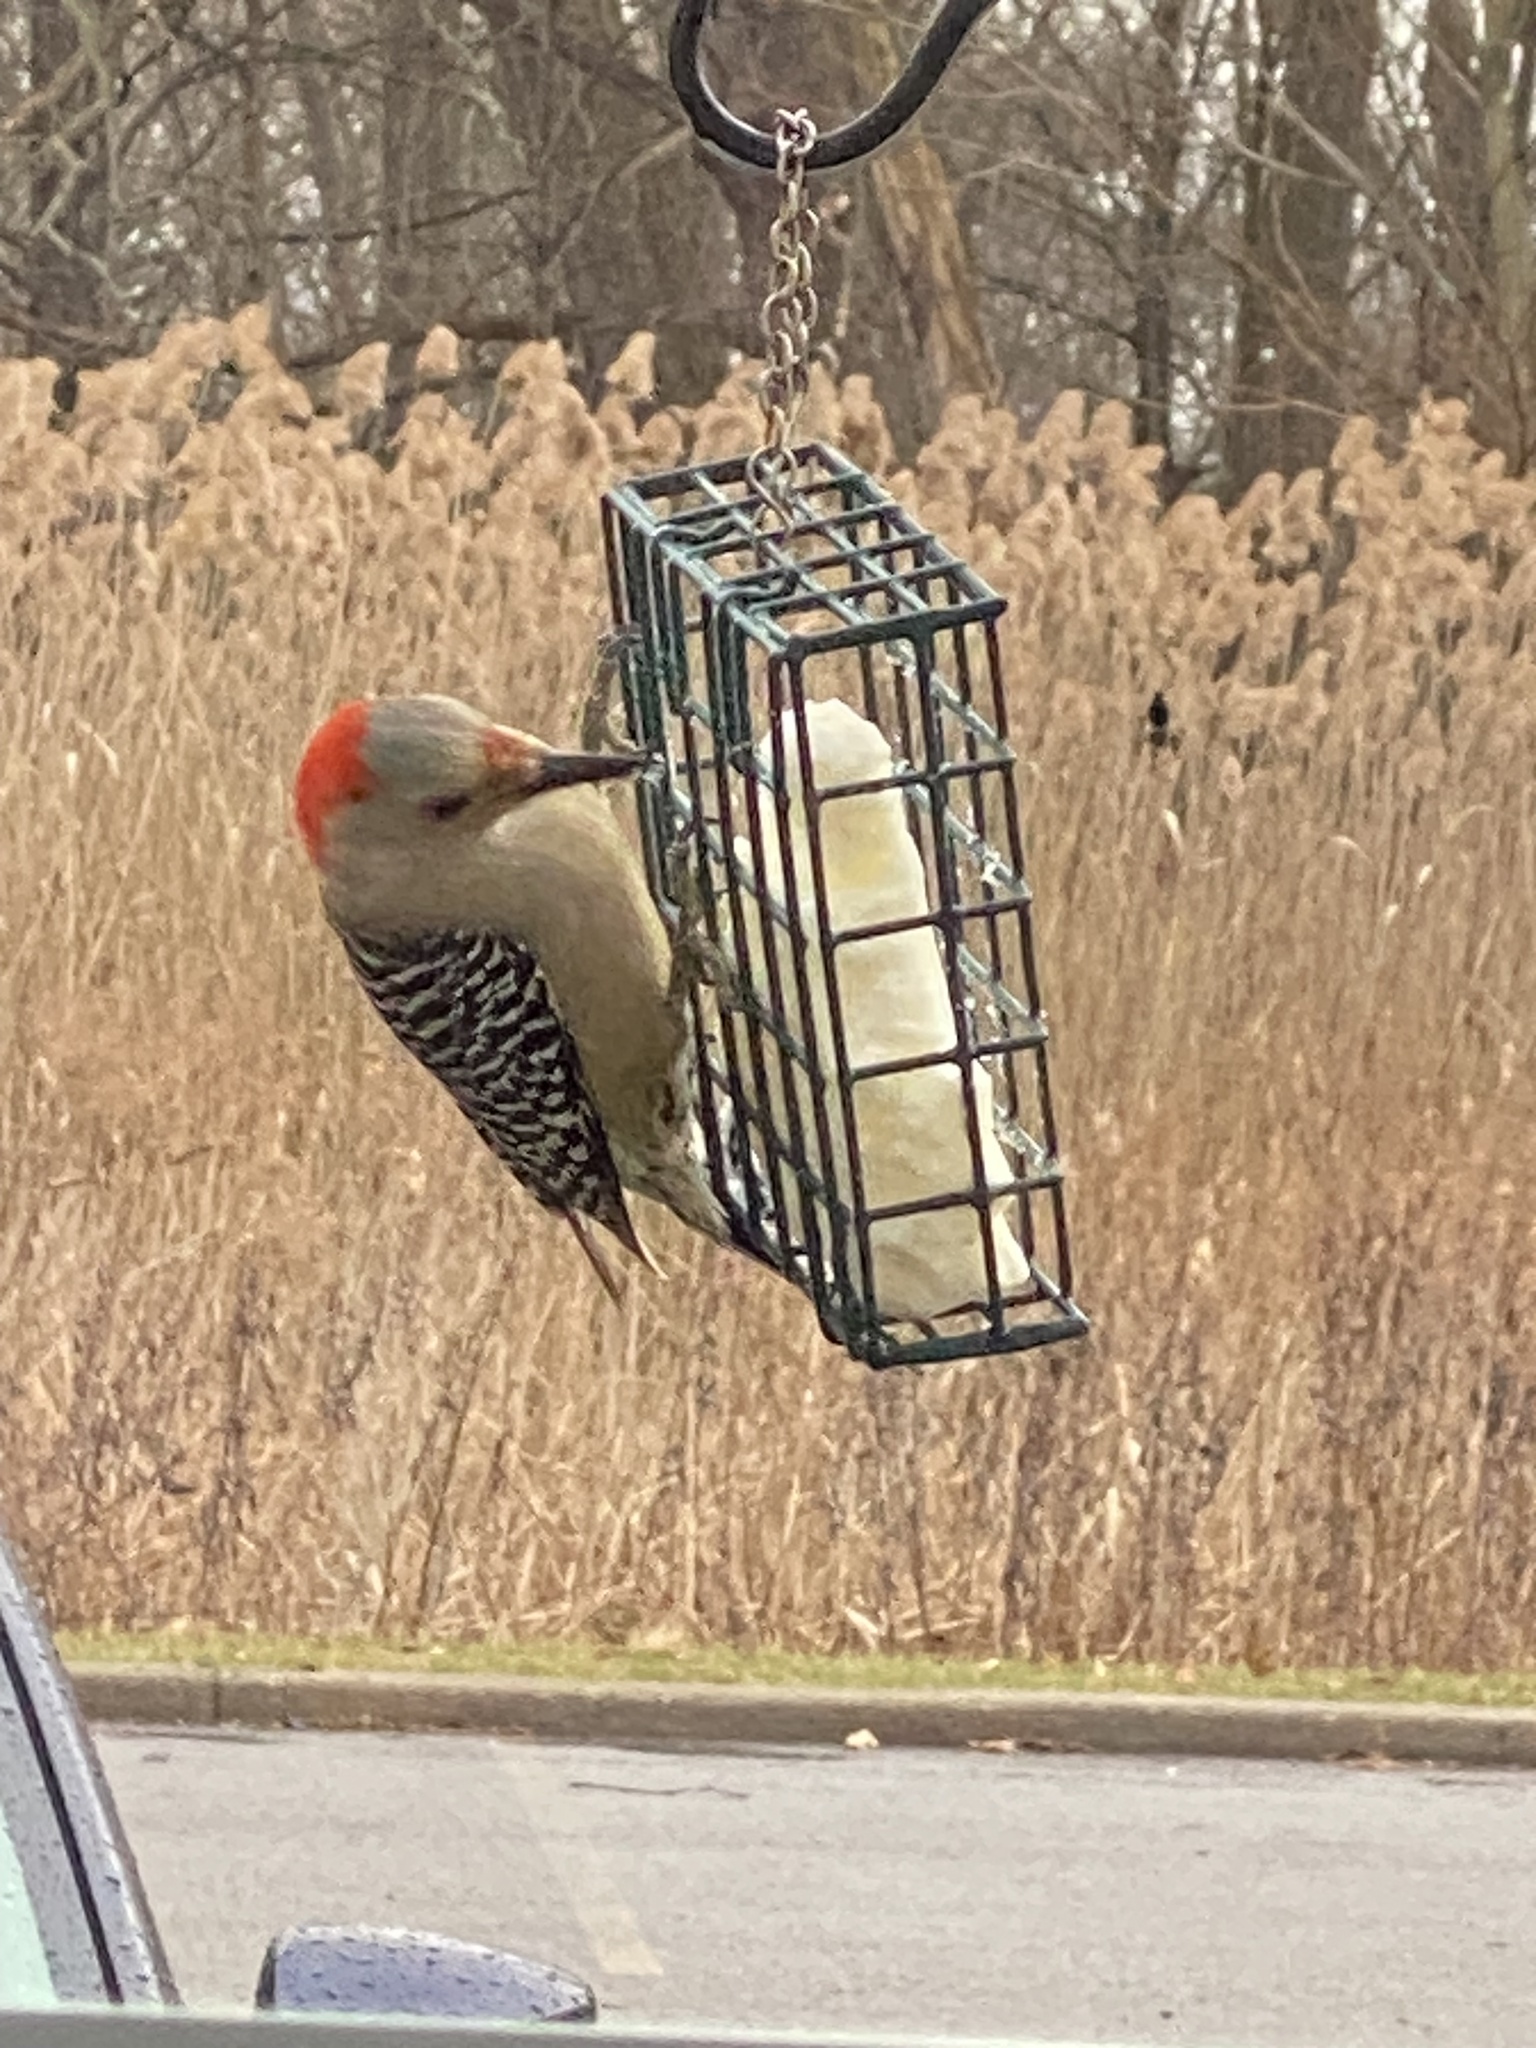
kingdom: Animalia
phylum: Chordata
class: Aves
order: Piciformes
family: Picidae
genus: Melanerpes
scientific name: Melanerpes carolinus
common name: Red-bellied woodpecker
